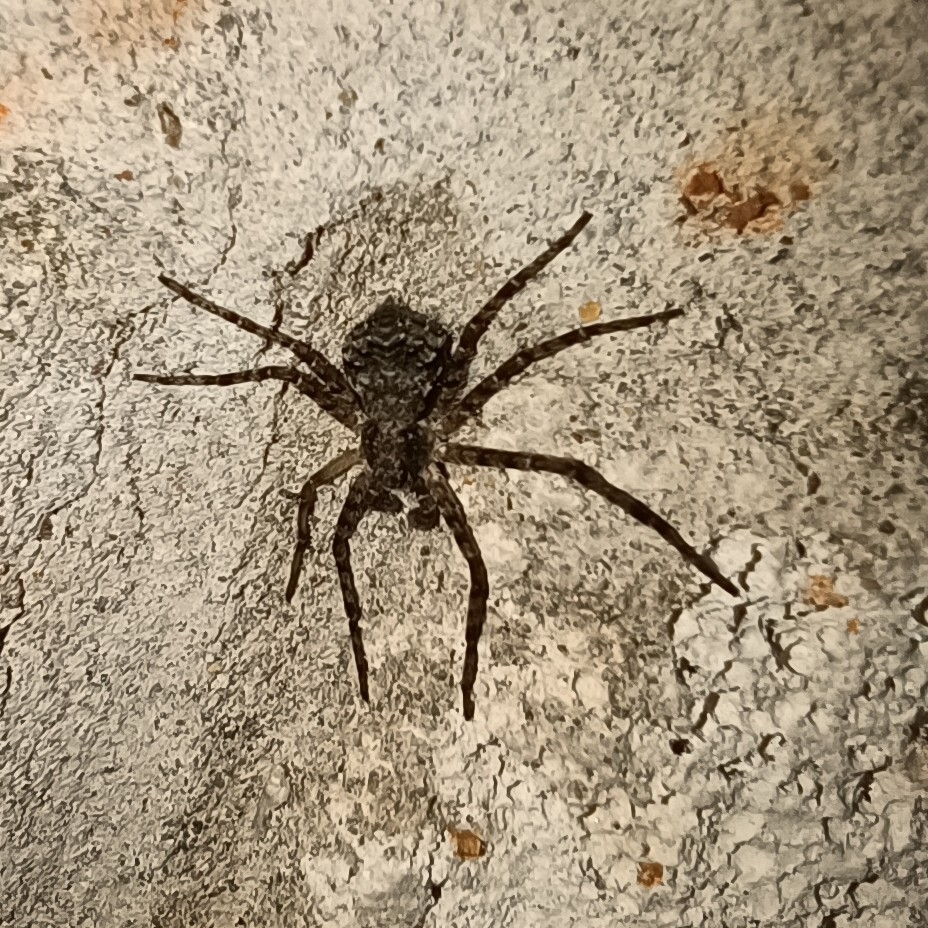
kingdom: Animalia
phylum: Arthropoda
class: Arachnida
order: Araneae
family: Philodromidae
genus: Philodromus
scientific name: Philodromus margaritatus
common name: Lichen running-spider
